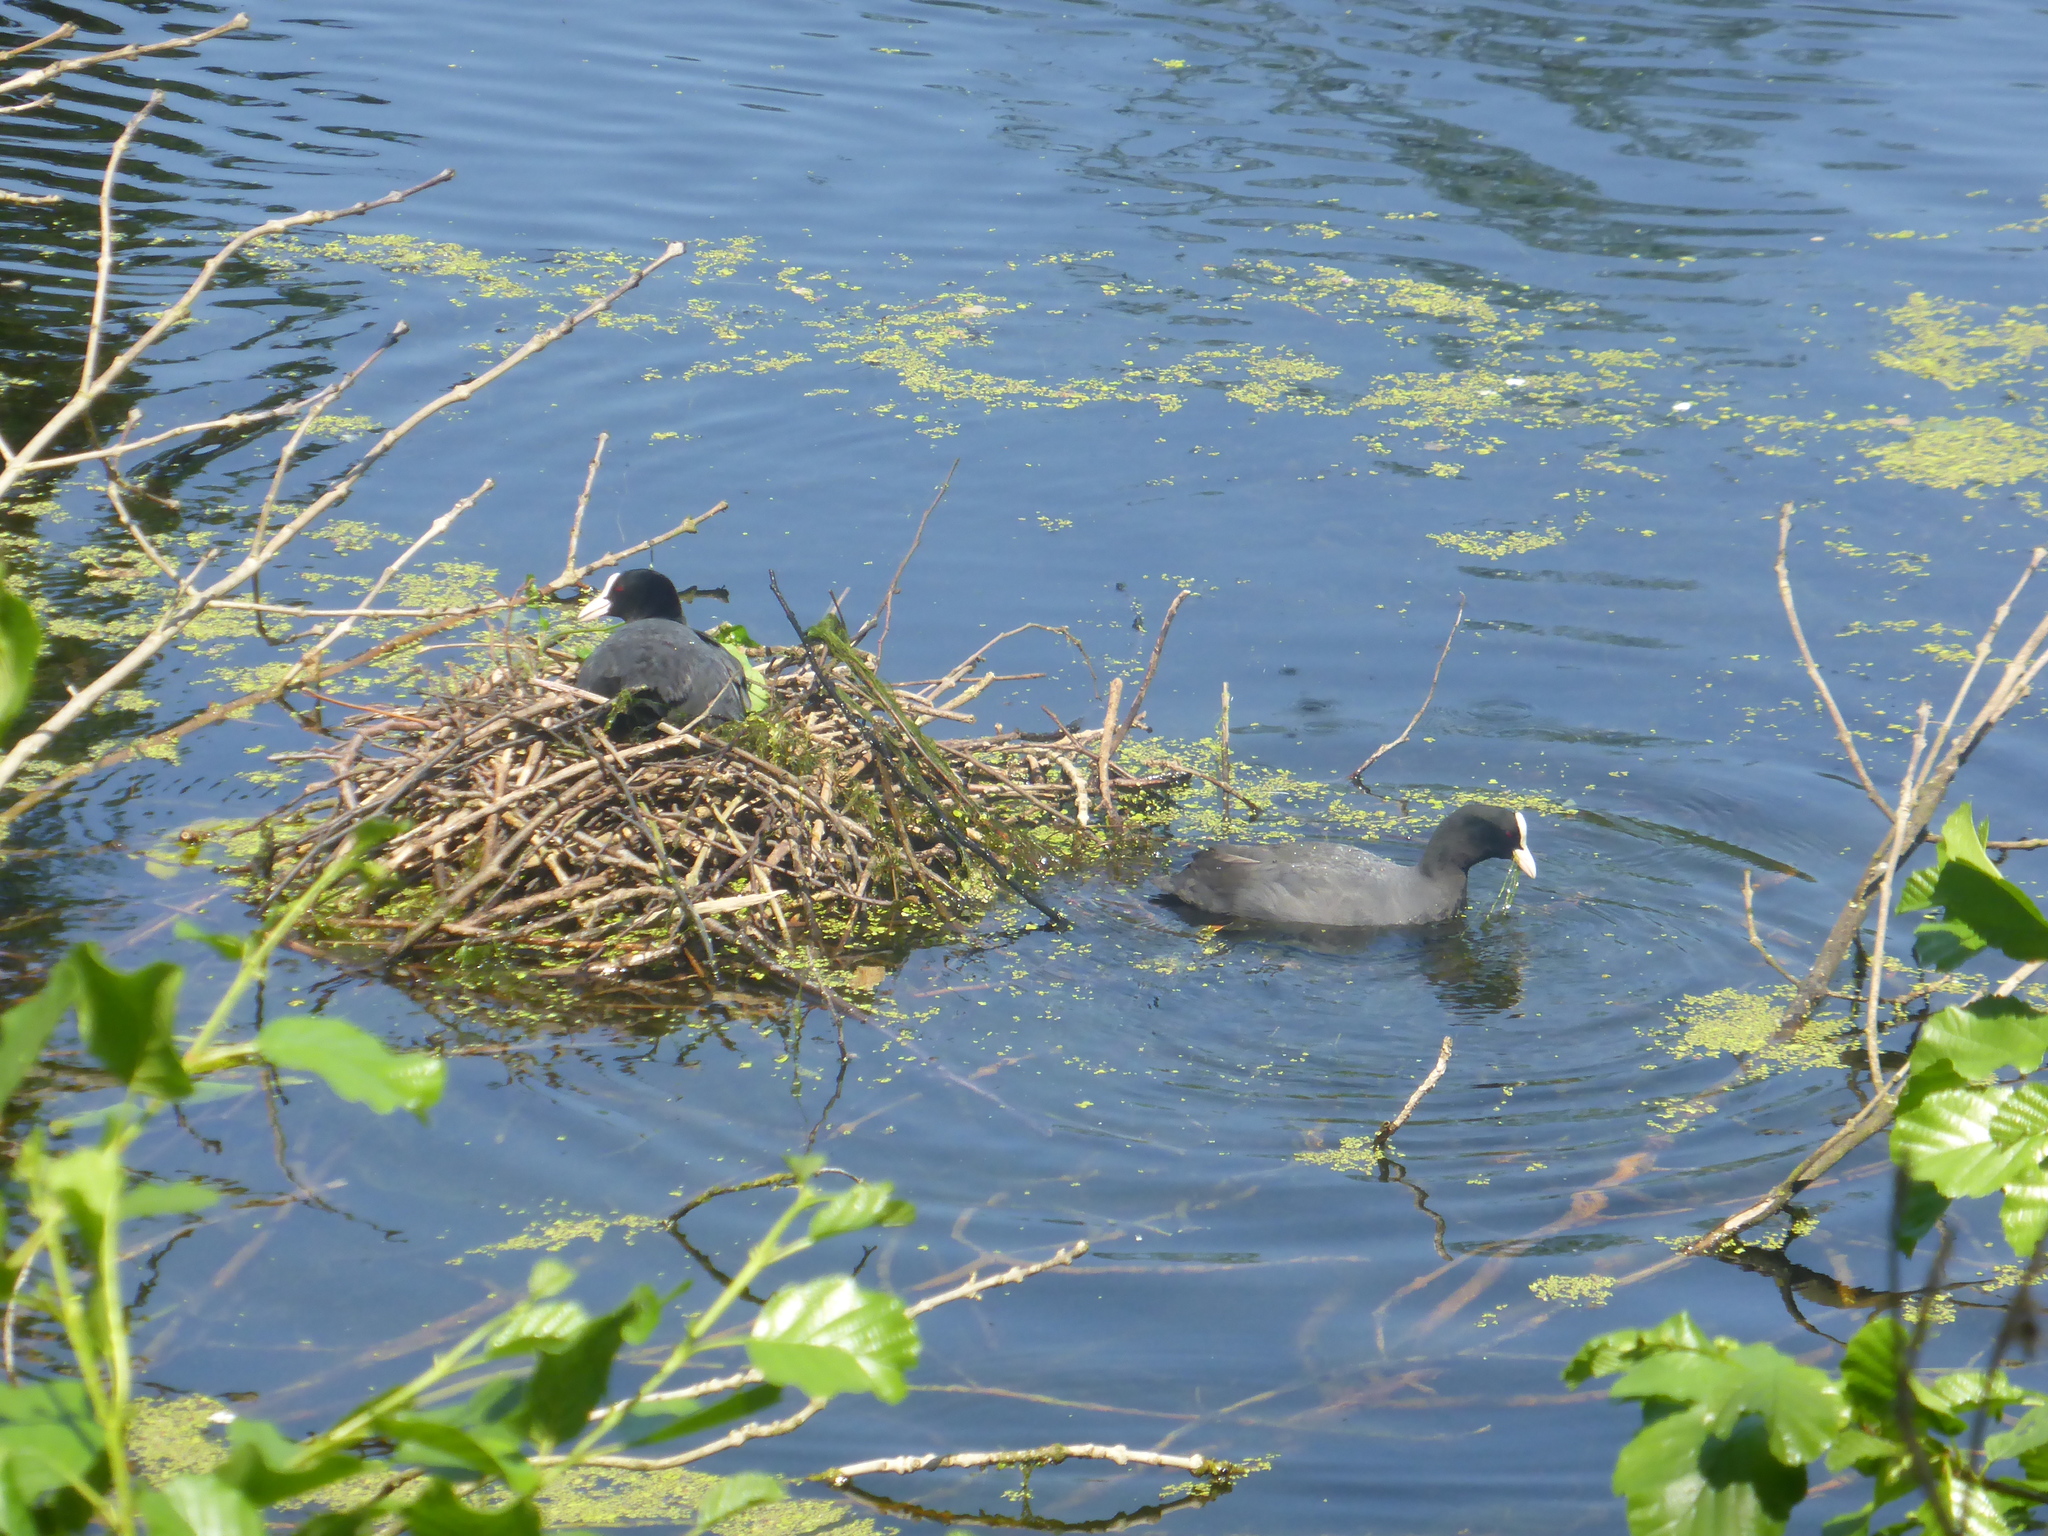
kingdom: Animalia
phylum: Chordata
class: Aves
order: Gruiformes
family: Rallidae
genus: Fulica
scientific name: Fulica atra
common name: Eurasian coot
